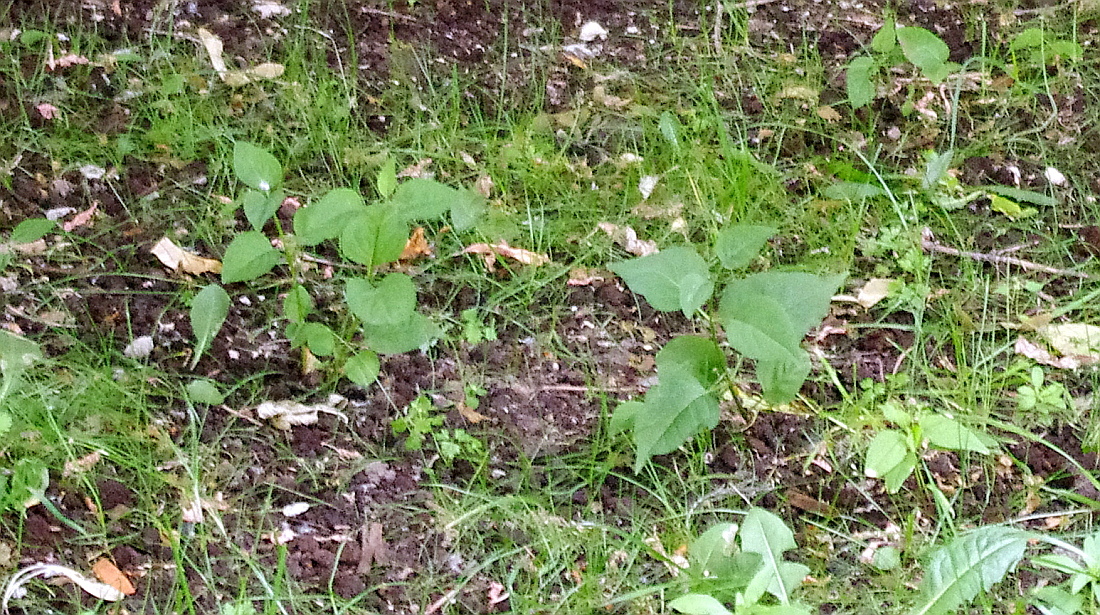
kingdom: Plantae
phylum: Tracheophyta
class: Magnoliopsida
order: Lamiales
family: Oleaceae
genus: Syringa
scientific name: Syringa vulgaris
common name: Common lilac
